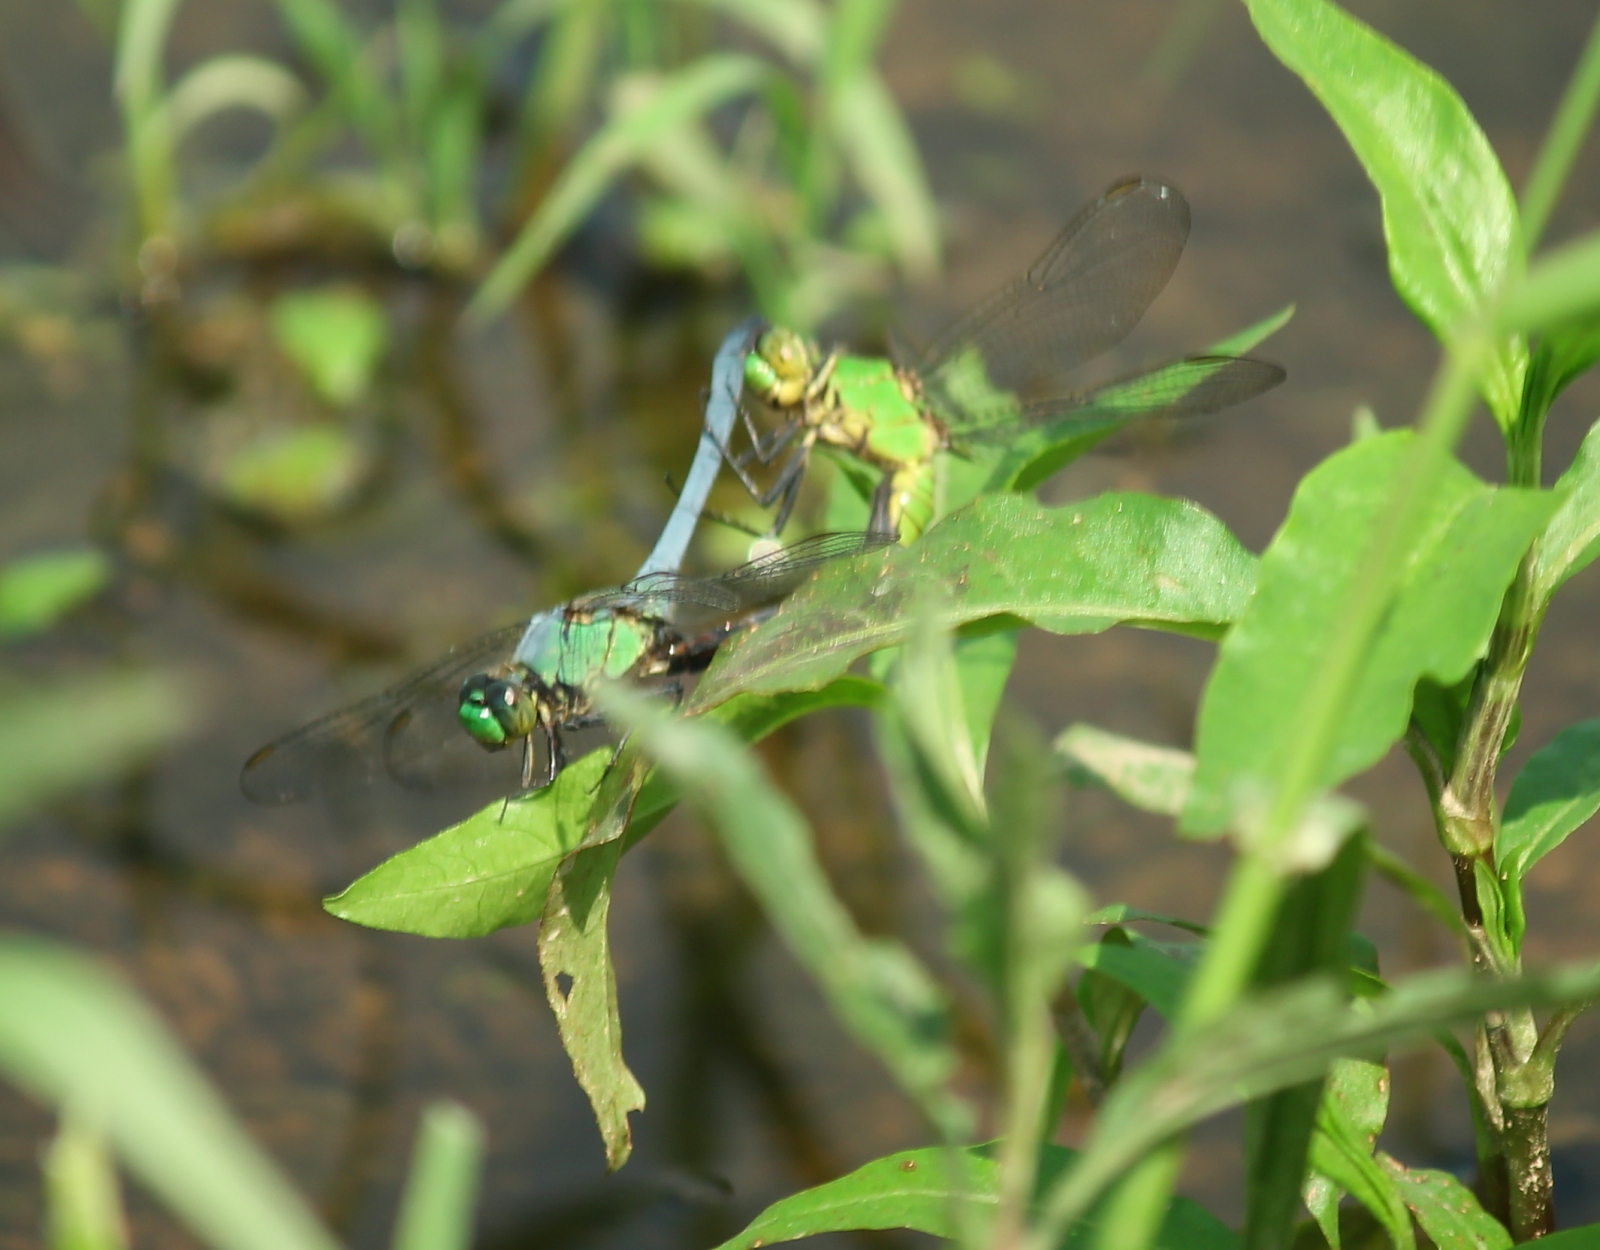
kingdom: Animalia
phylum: Arthropoda
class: Insecta
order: Odonata
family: Libellulidae
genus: Erythemis
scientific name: Erythemis simplicicollis
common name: Eastern pondhawk
